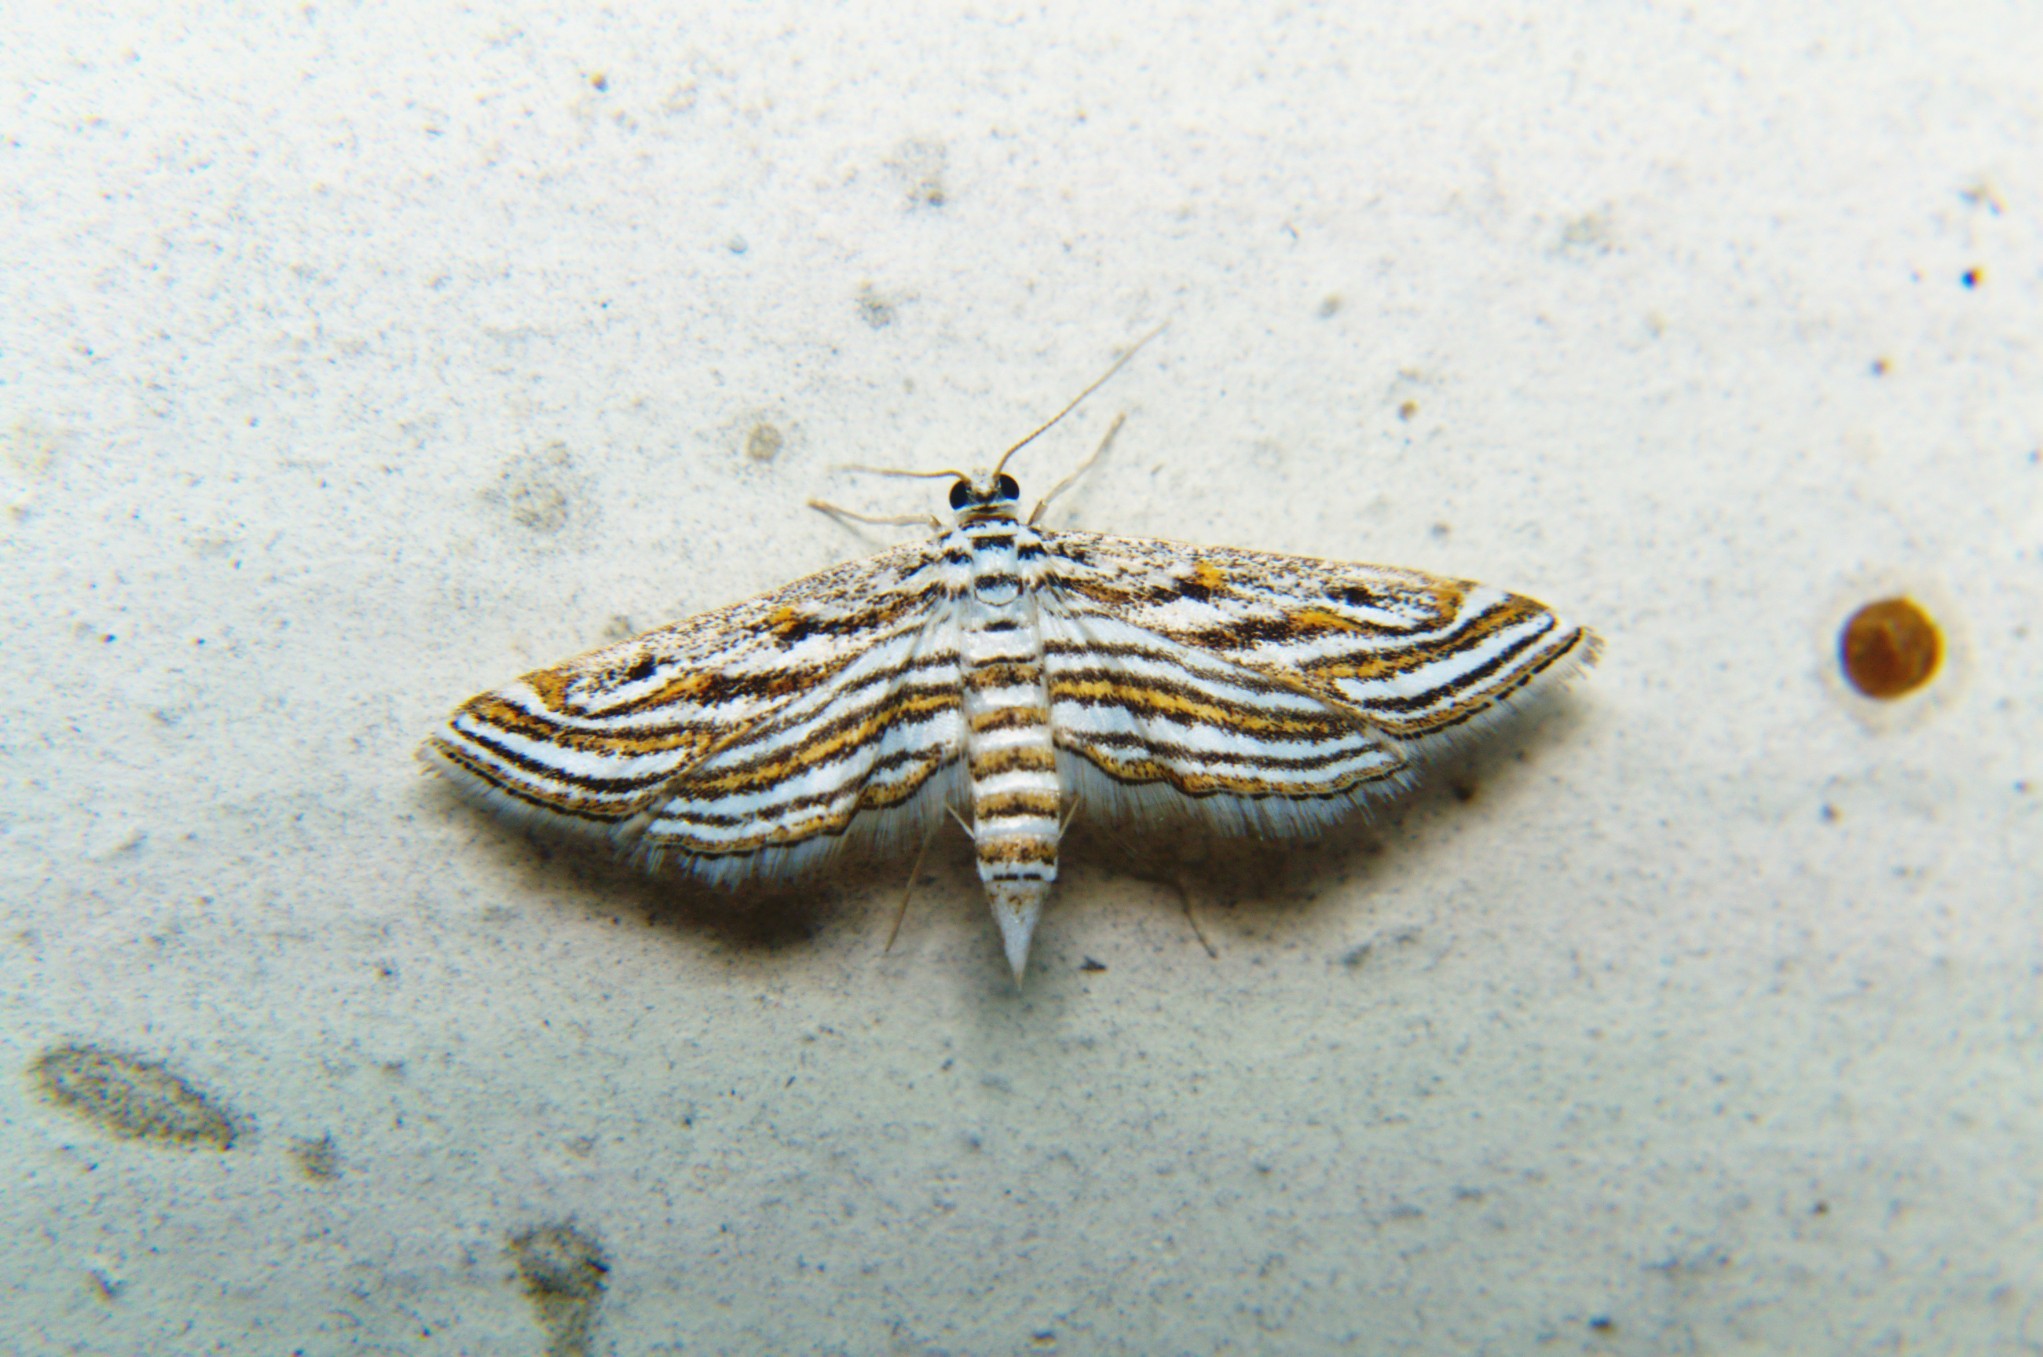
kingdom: Animalia
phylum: Arthropoda
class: Insecta
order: Lepidoptera
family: Crambidae
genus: Parapoynx
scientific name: Parapoynx fluctuosalis
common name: Moth
